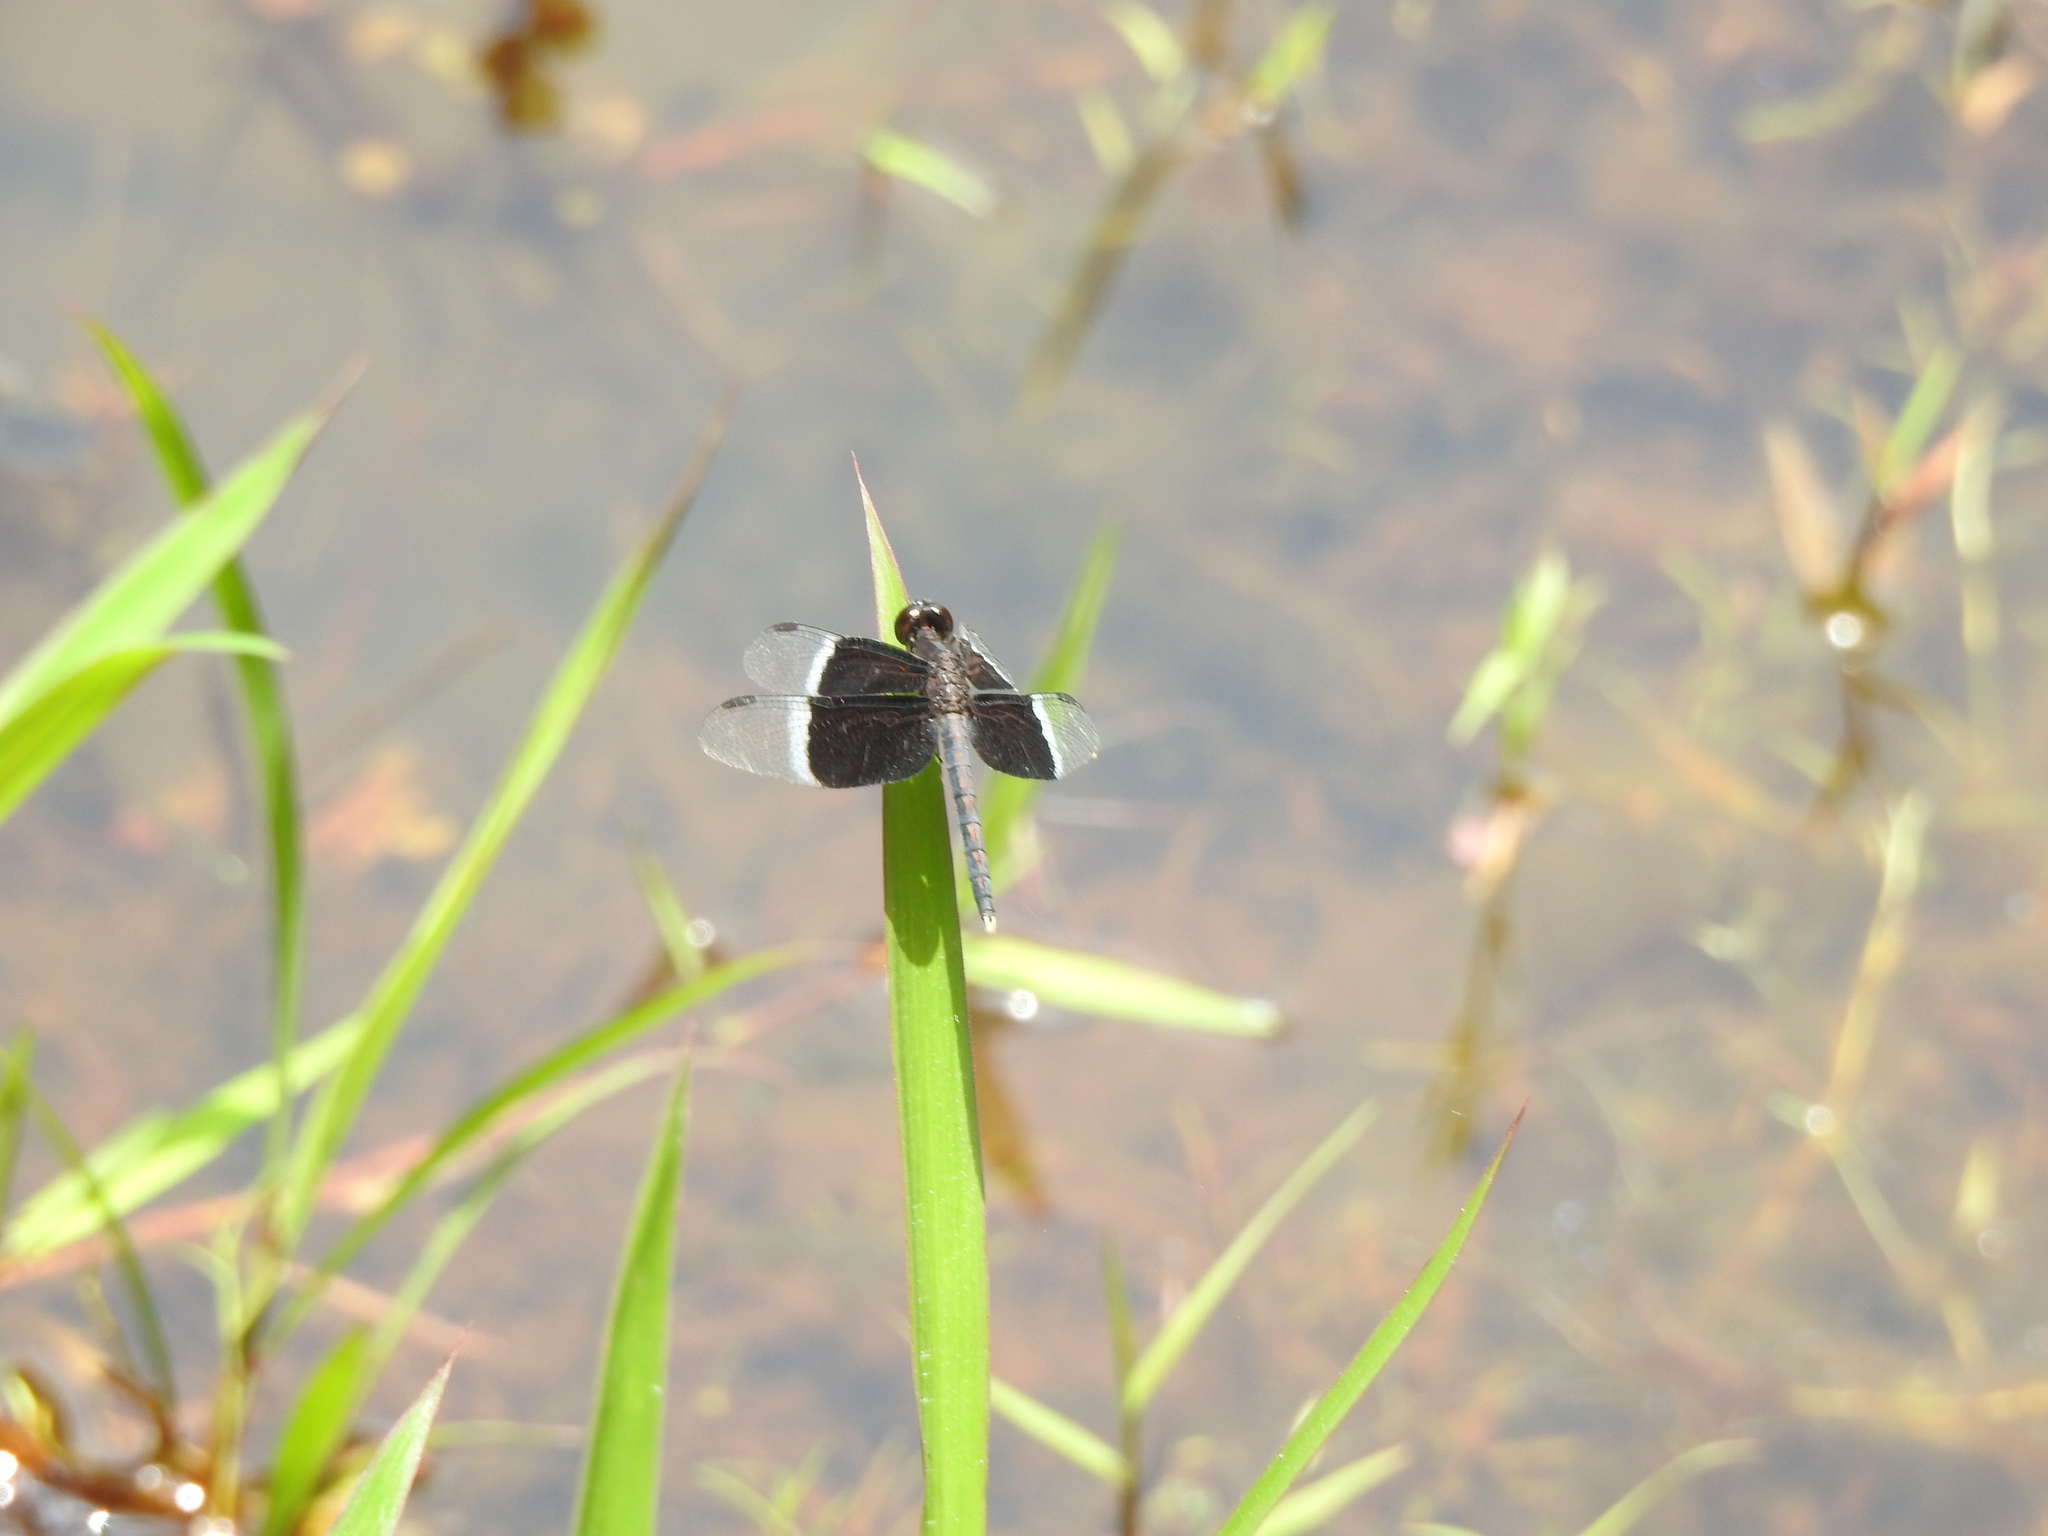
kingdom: Animalia
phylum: Arthropoda
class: Insecta
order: Odonata
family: Libellulidae
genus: Neurothemis
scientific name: Neurothemis tullia
